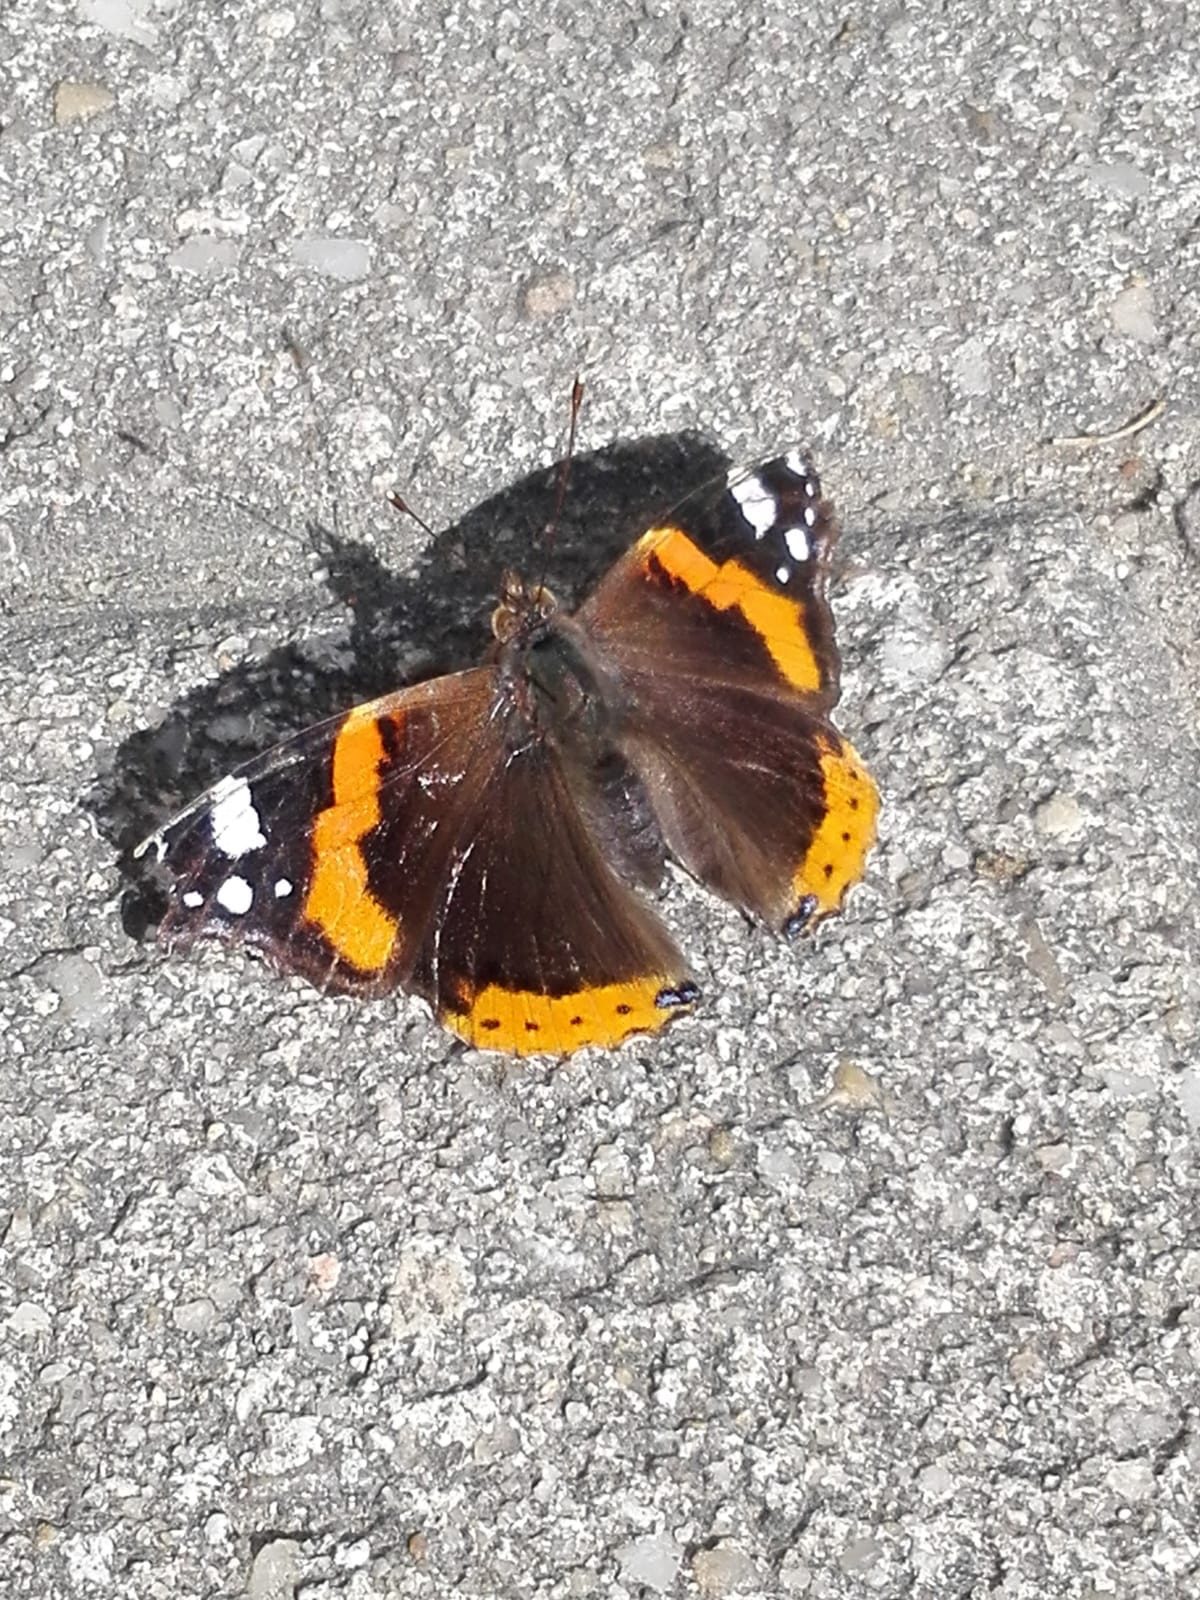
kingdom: Animalia
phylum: Arthropoda
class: Insecta
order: Lepidoptera
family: Nymphalidae
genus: Vanessa
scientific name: Vanessa atalanta
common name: Red admiral
